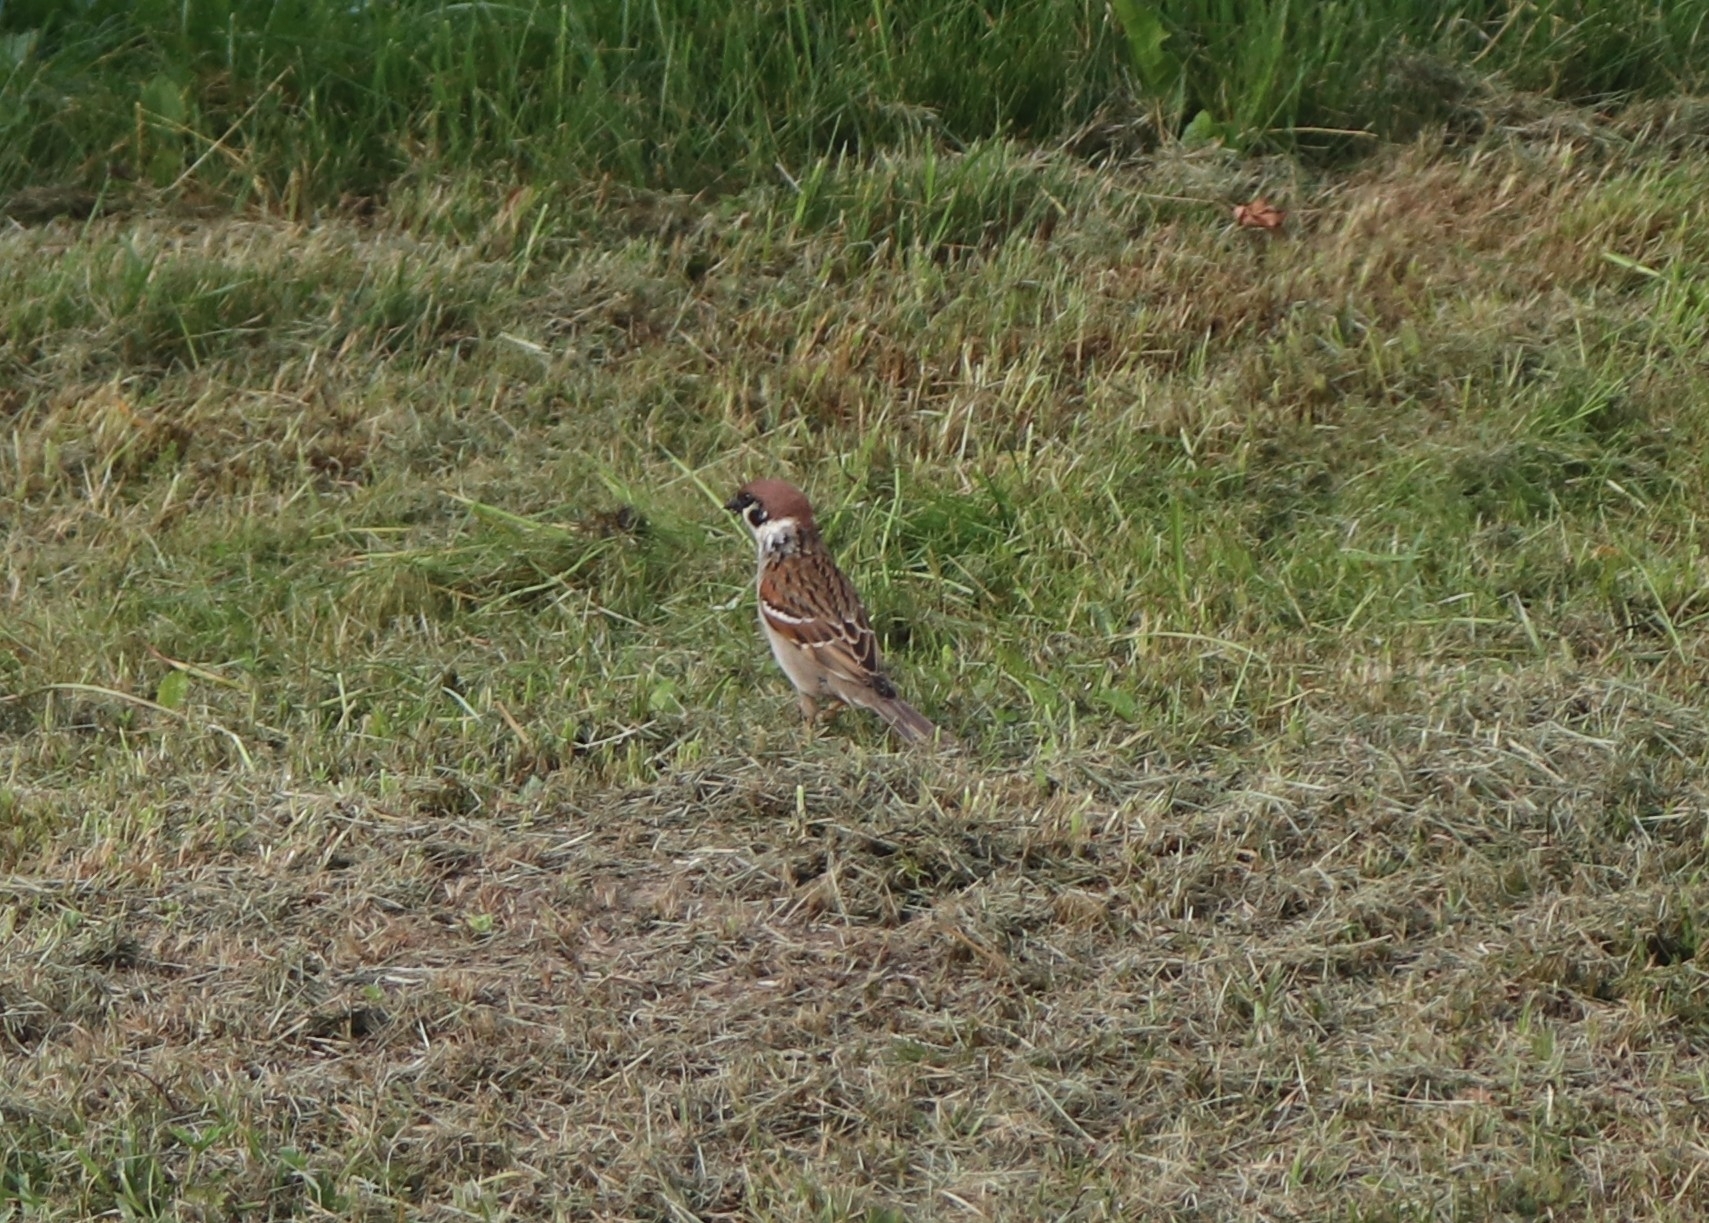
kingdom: Animalia
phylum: Chordata
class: Aves
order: Passeriformes
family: Passeridae
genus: Passer
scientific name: Passer montanus
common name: Eurasian tree sparrow
